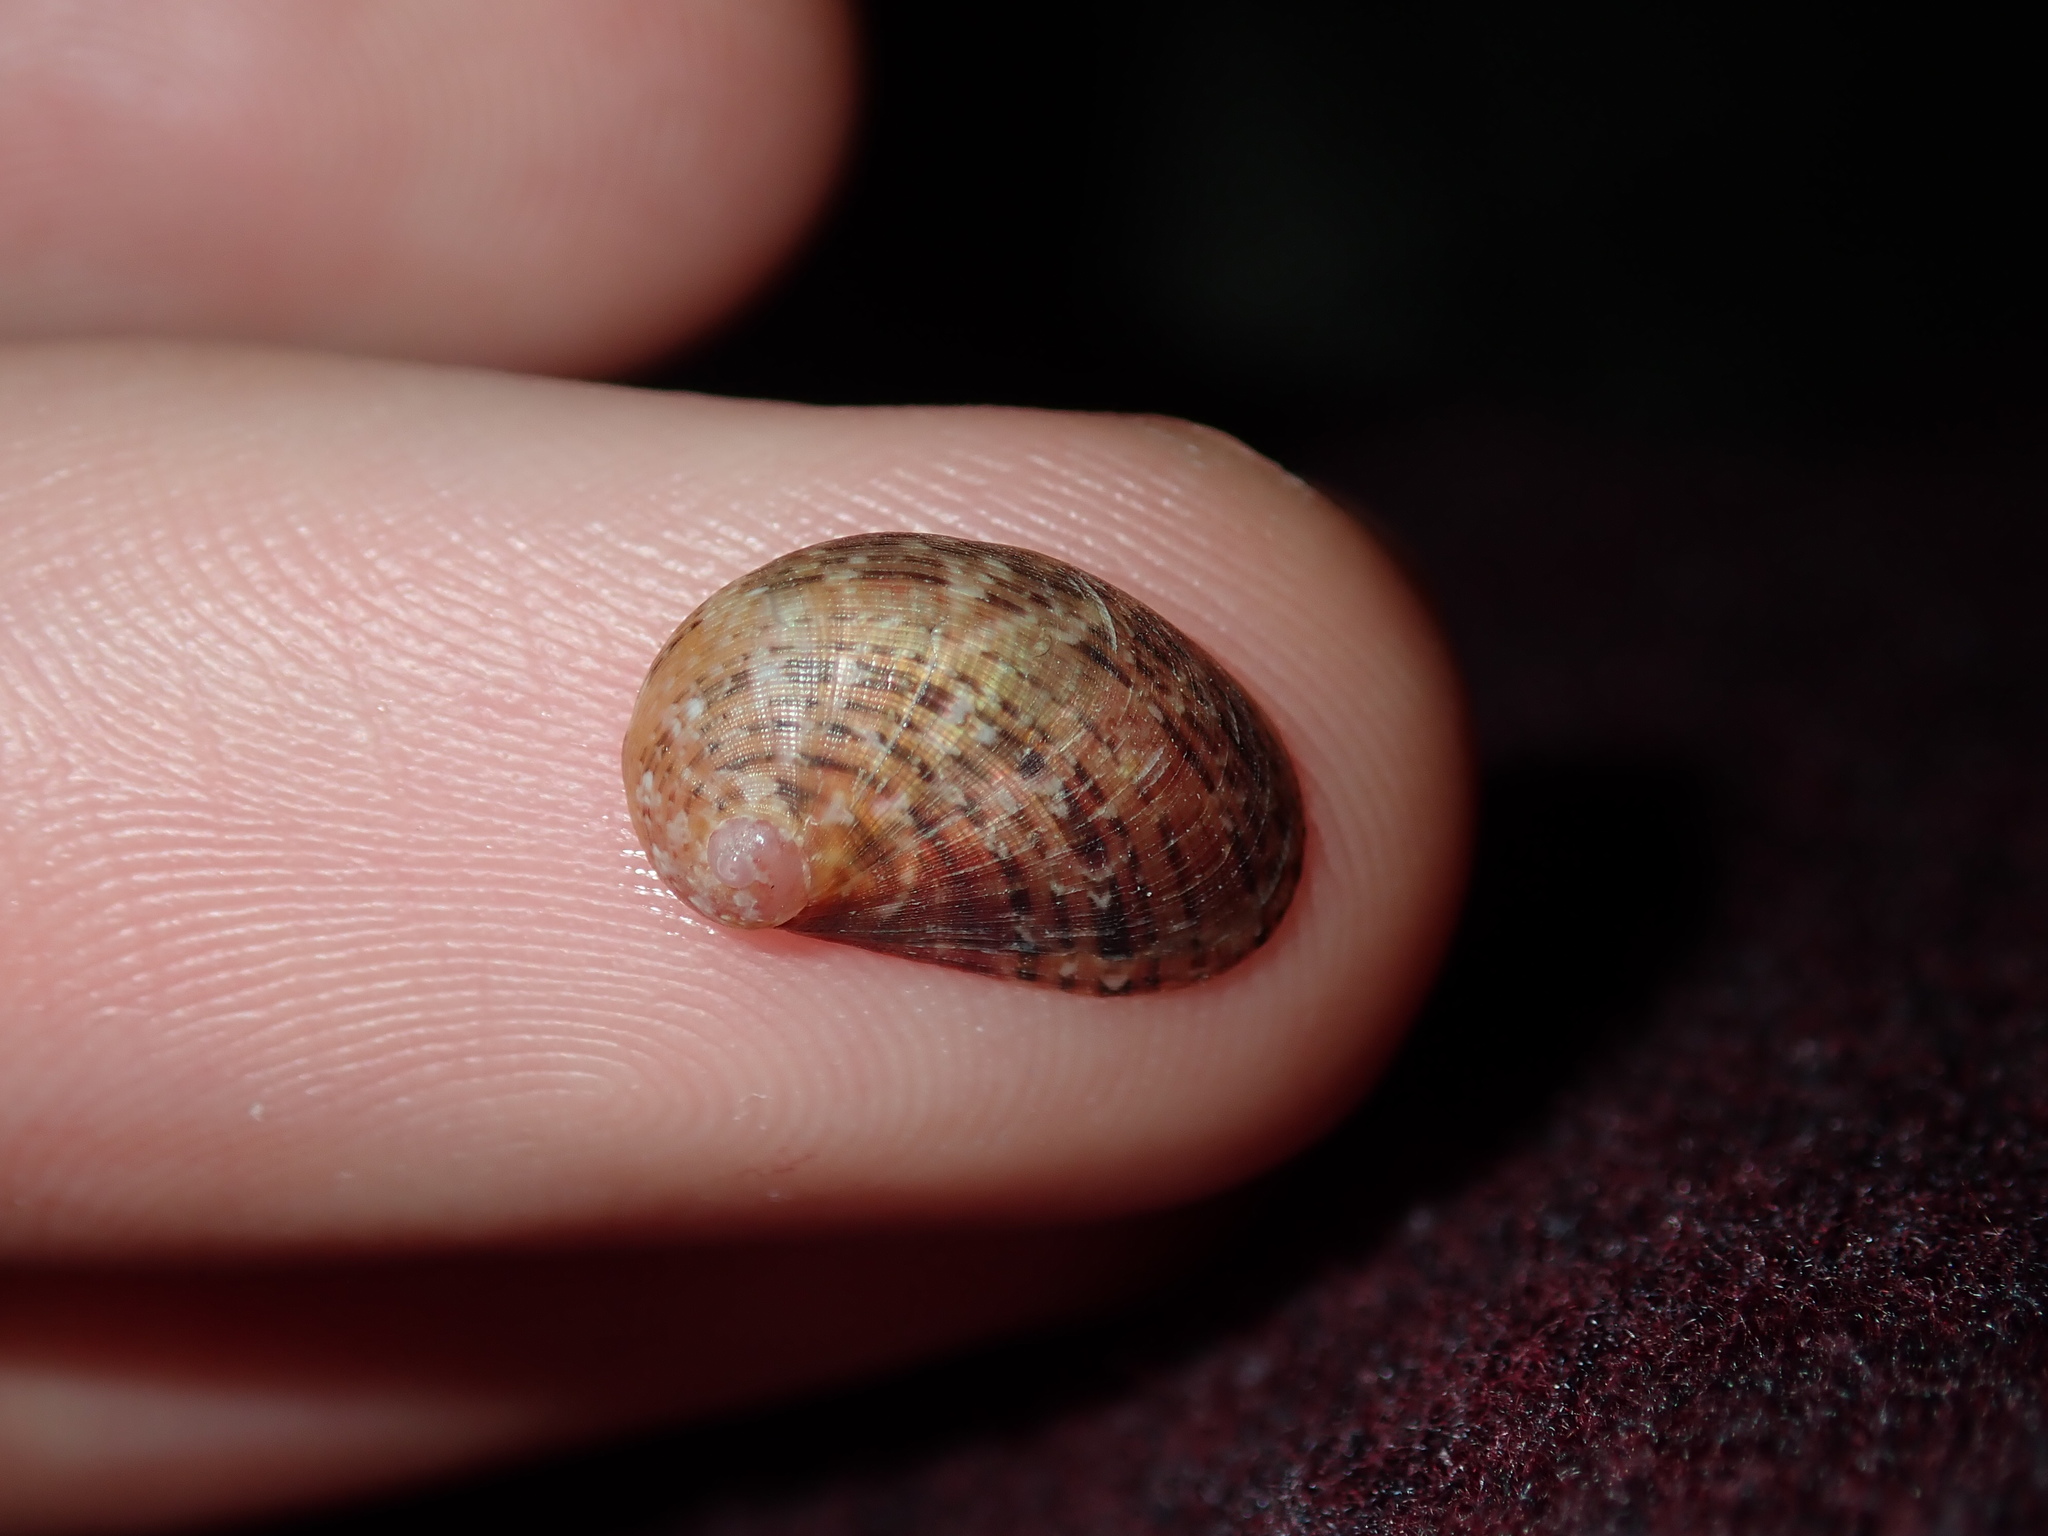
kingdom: Animalia
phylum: Mollusca
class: Gastropoda
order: Trochida
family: Trochidae
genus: Stomatella
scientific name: Stomatella impertusa
